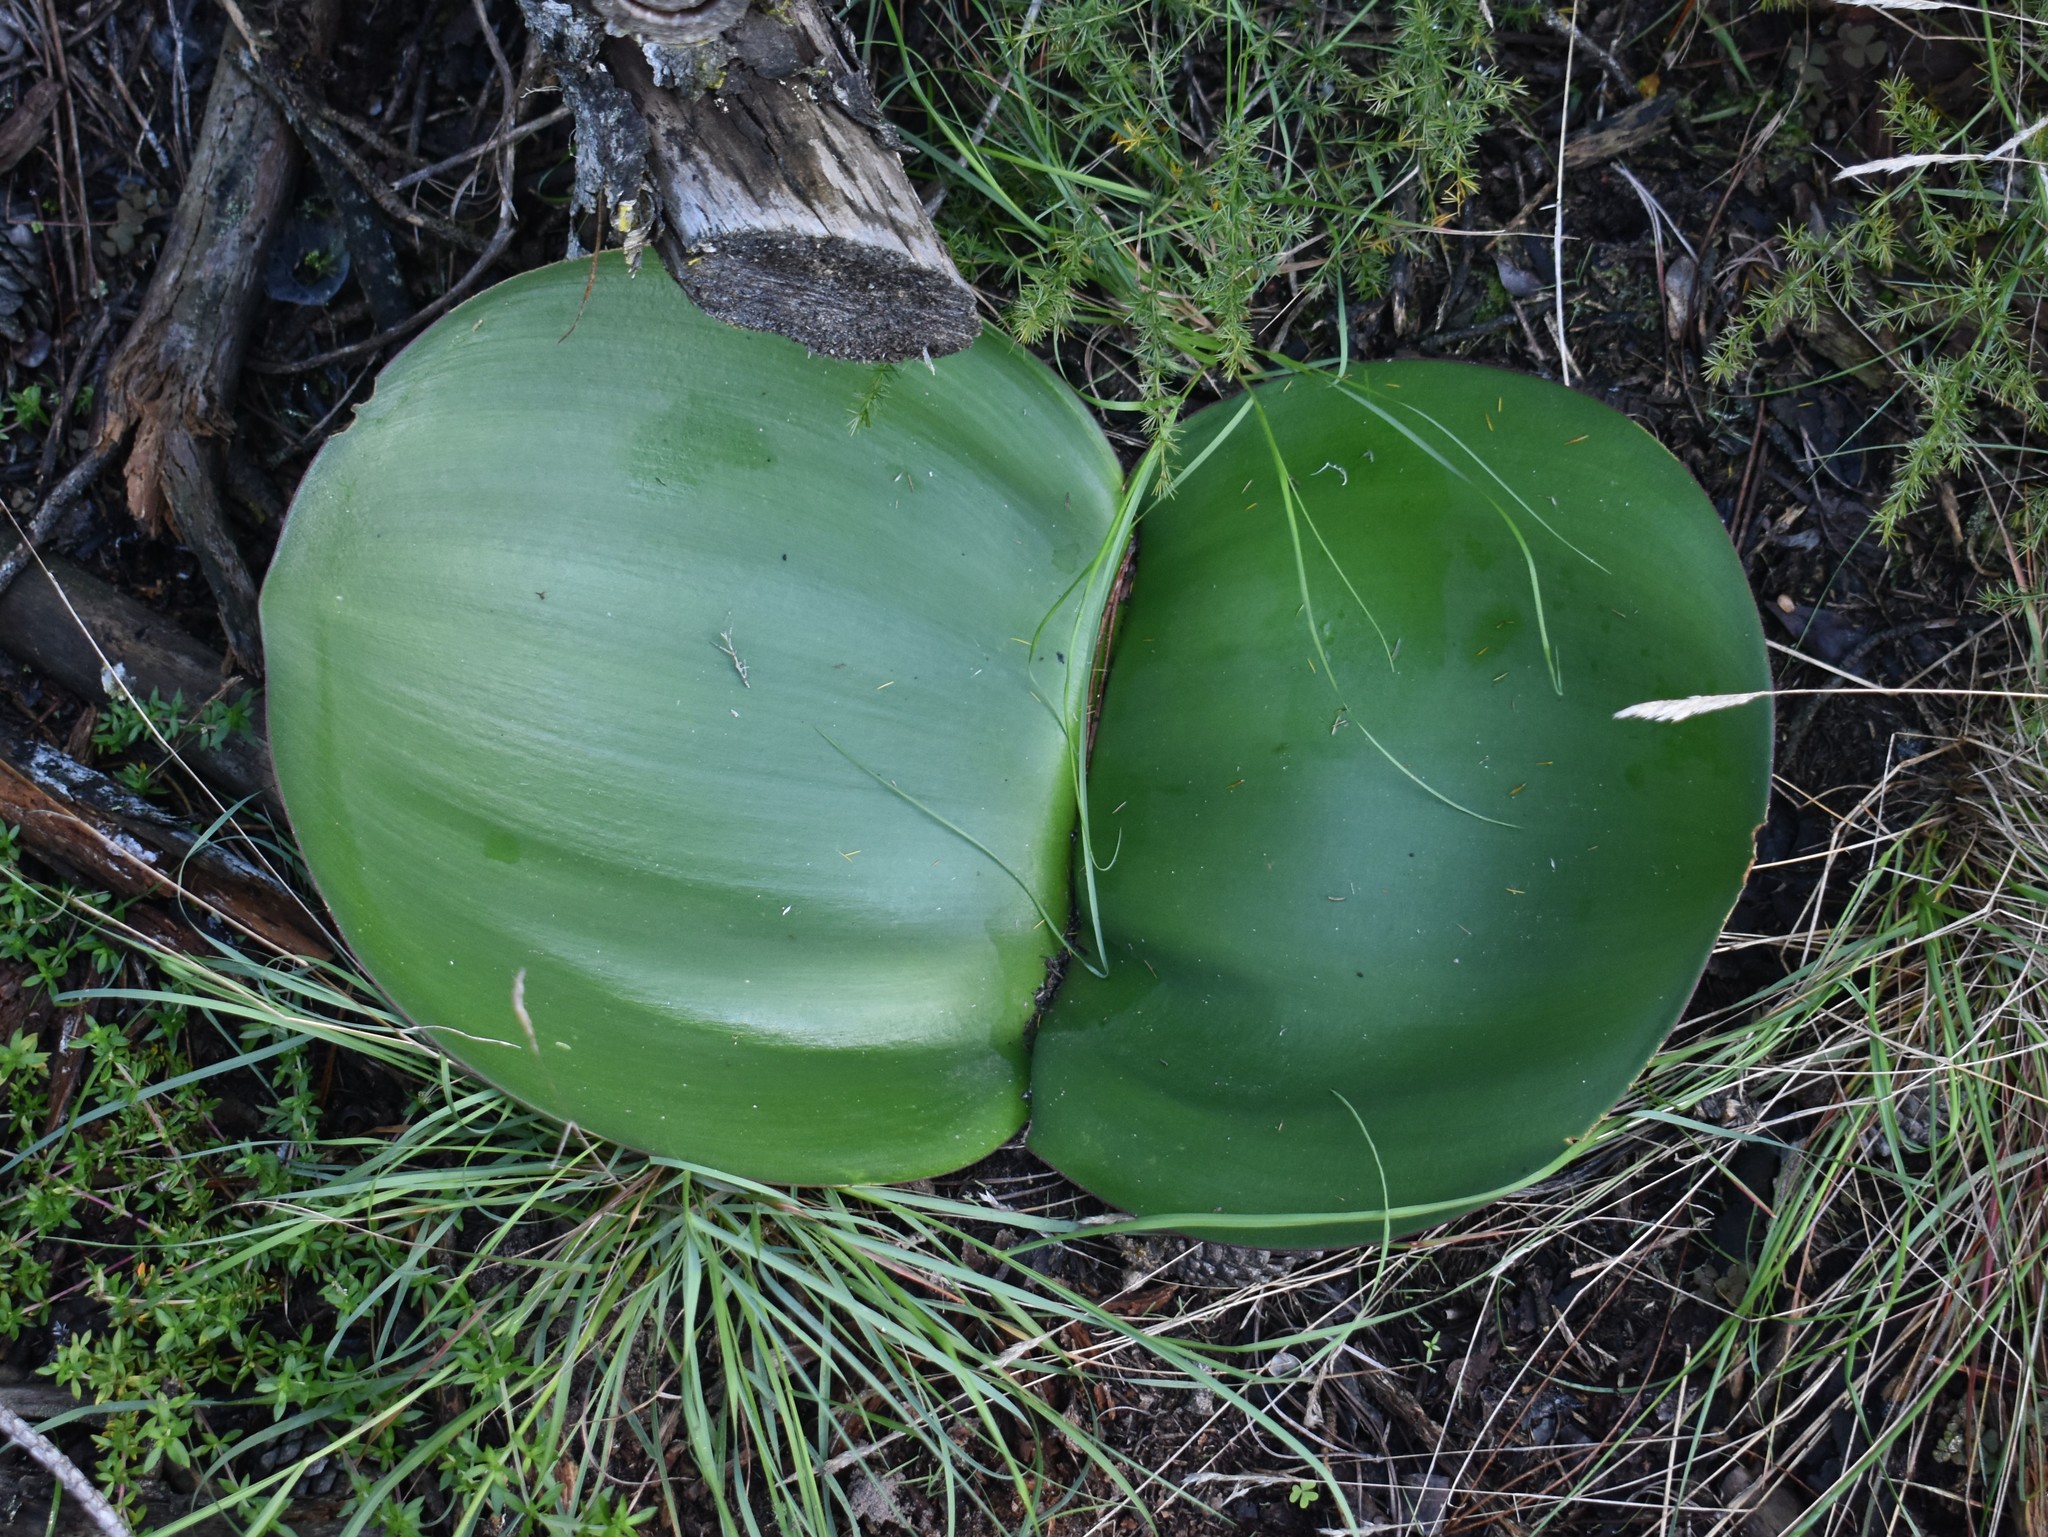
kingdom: Plantae
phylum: Tracheophyta
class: Liliopsida
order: Asparagales
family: Amaryllidaceae
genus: Haemanthus
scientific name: Haemanthus sanguineus
